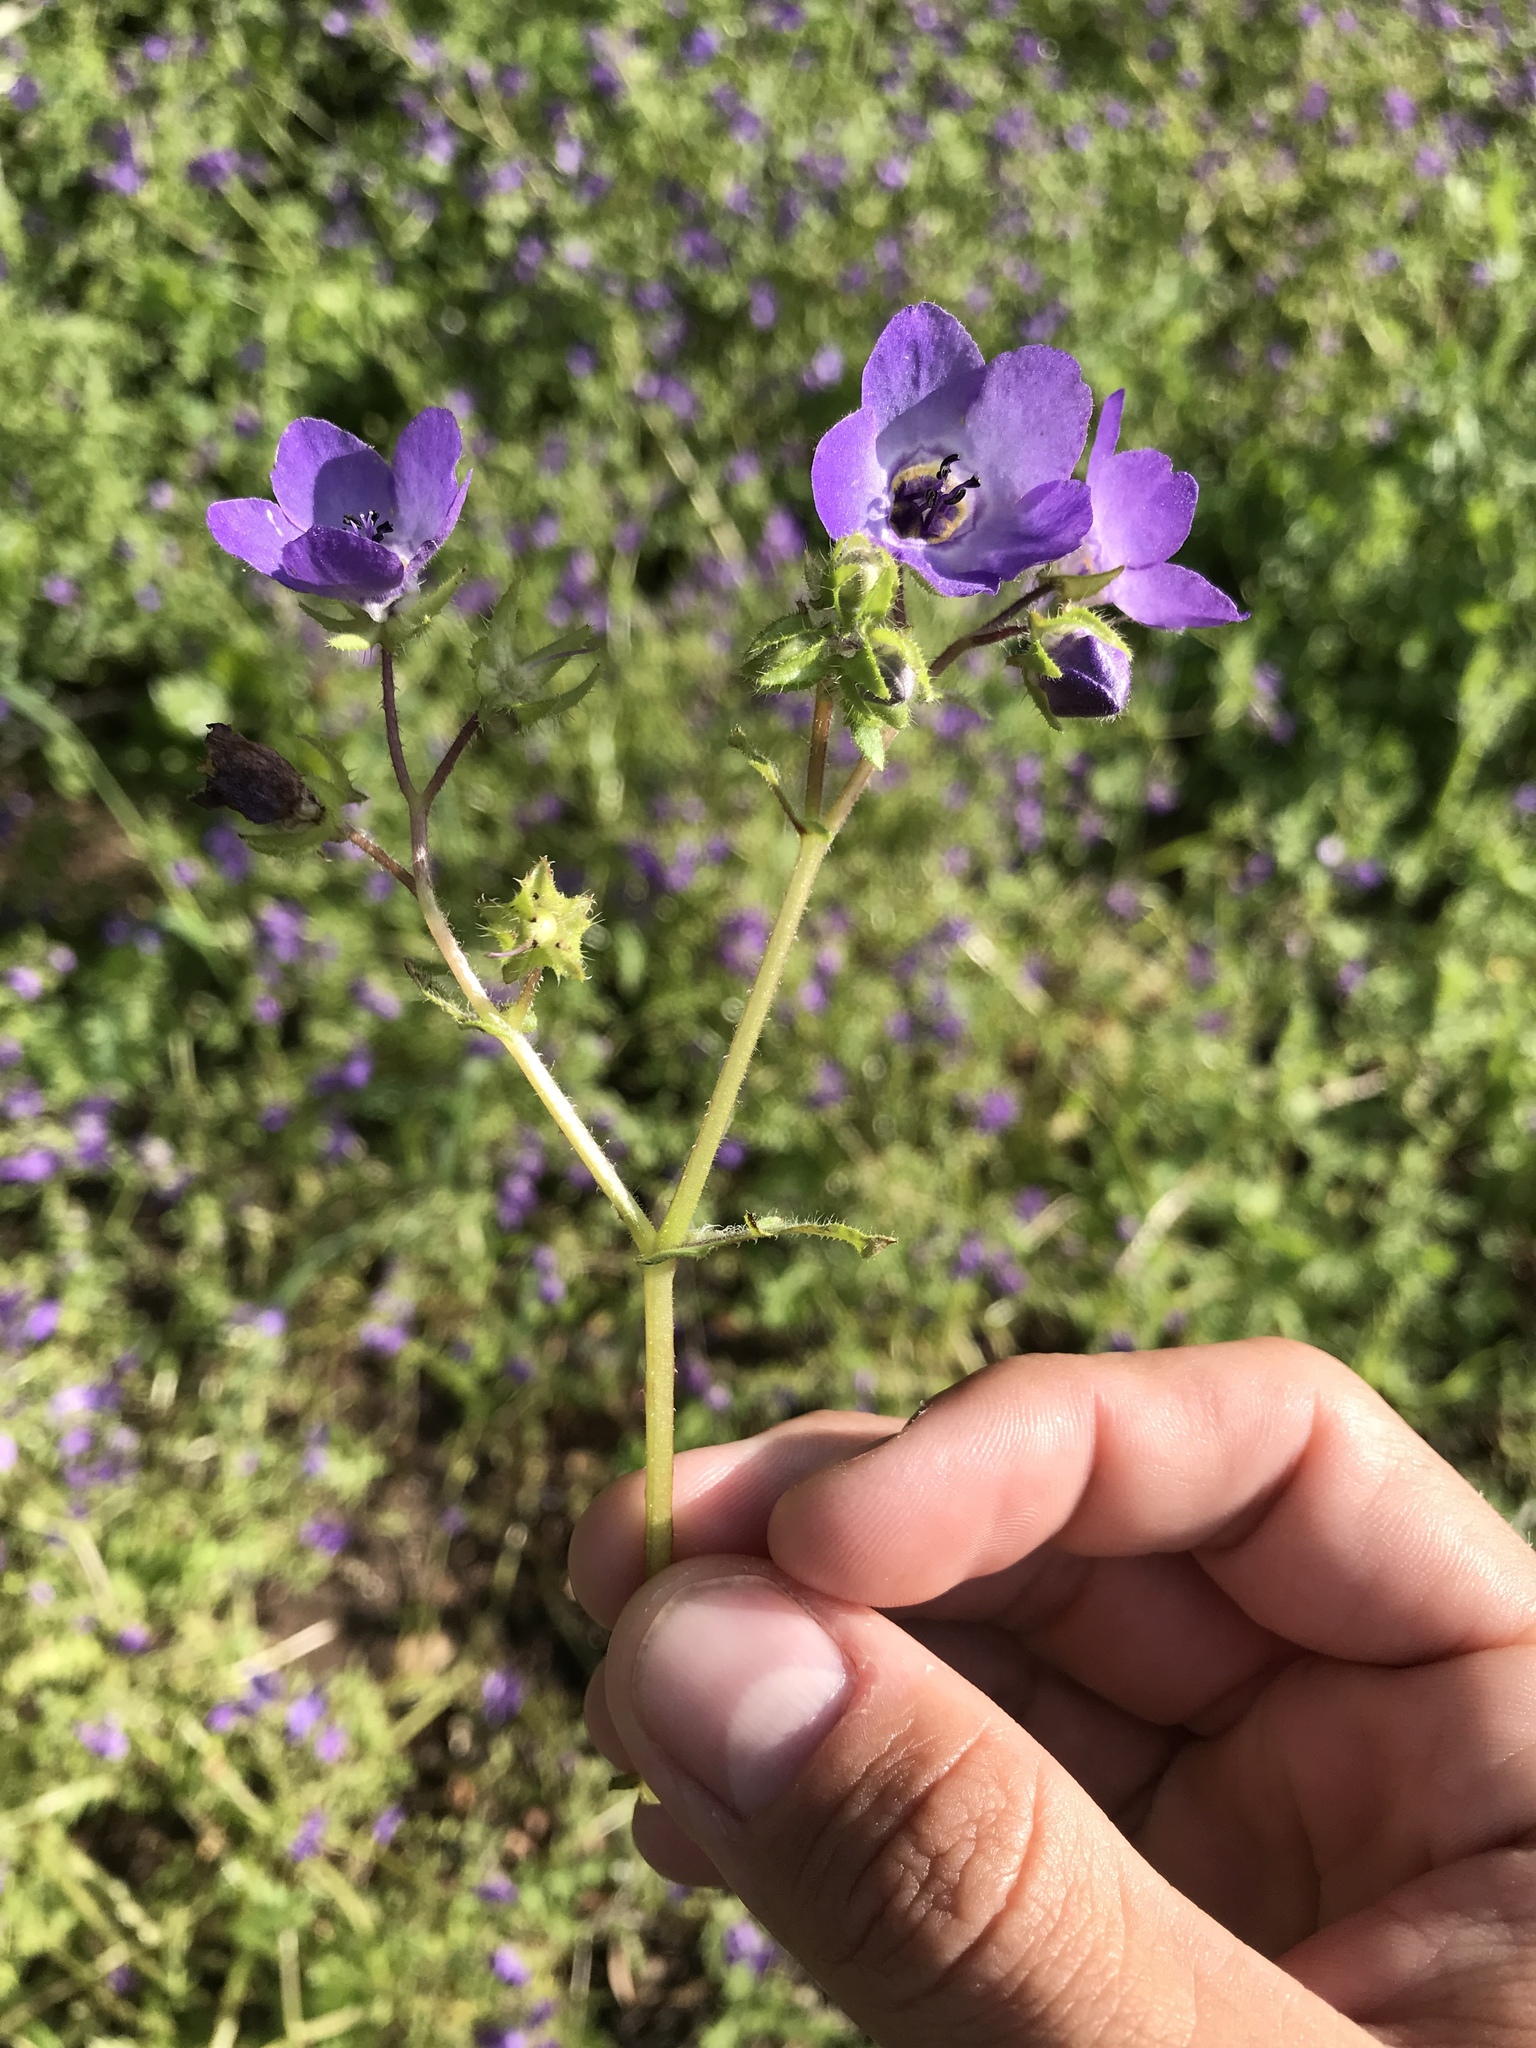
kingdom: Plantae
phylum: Tracheophyta
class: Magnoliopsida
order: Boraginales
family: Hydrophyllaceae
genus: Pholistoma
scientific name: Pholistoma auritum
